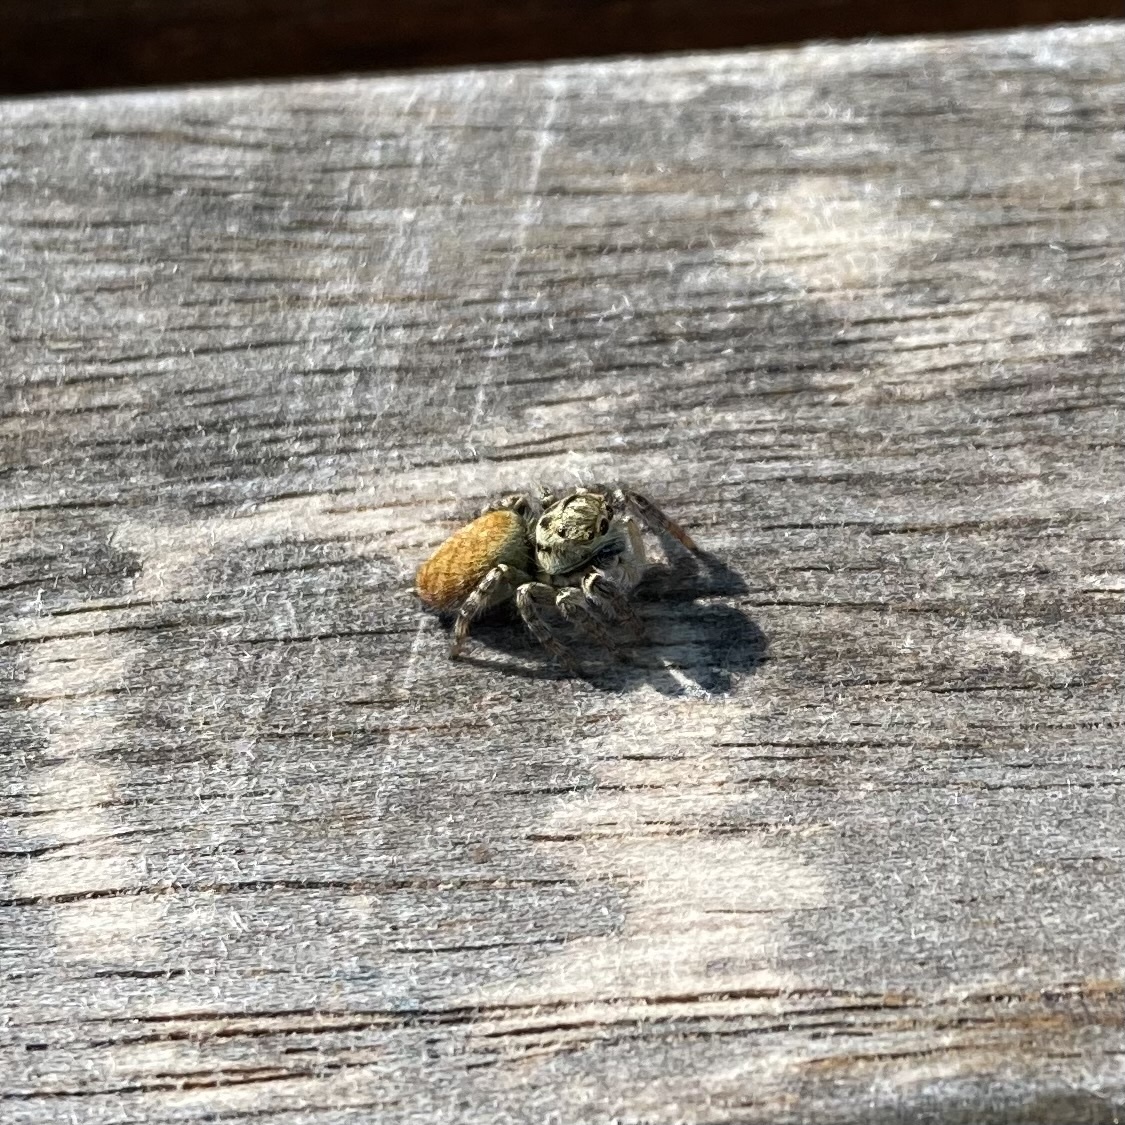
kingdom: Animalia
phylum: Arthropoda
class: Arachnida
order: Araneae
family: Salticidae
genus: Carrhotus
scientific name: Carrhotus xanthogramma
